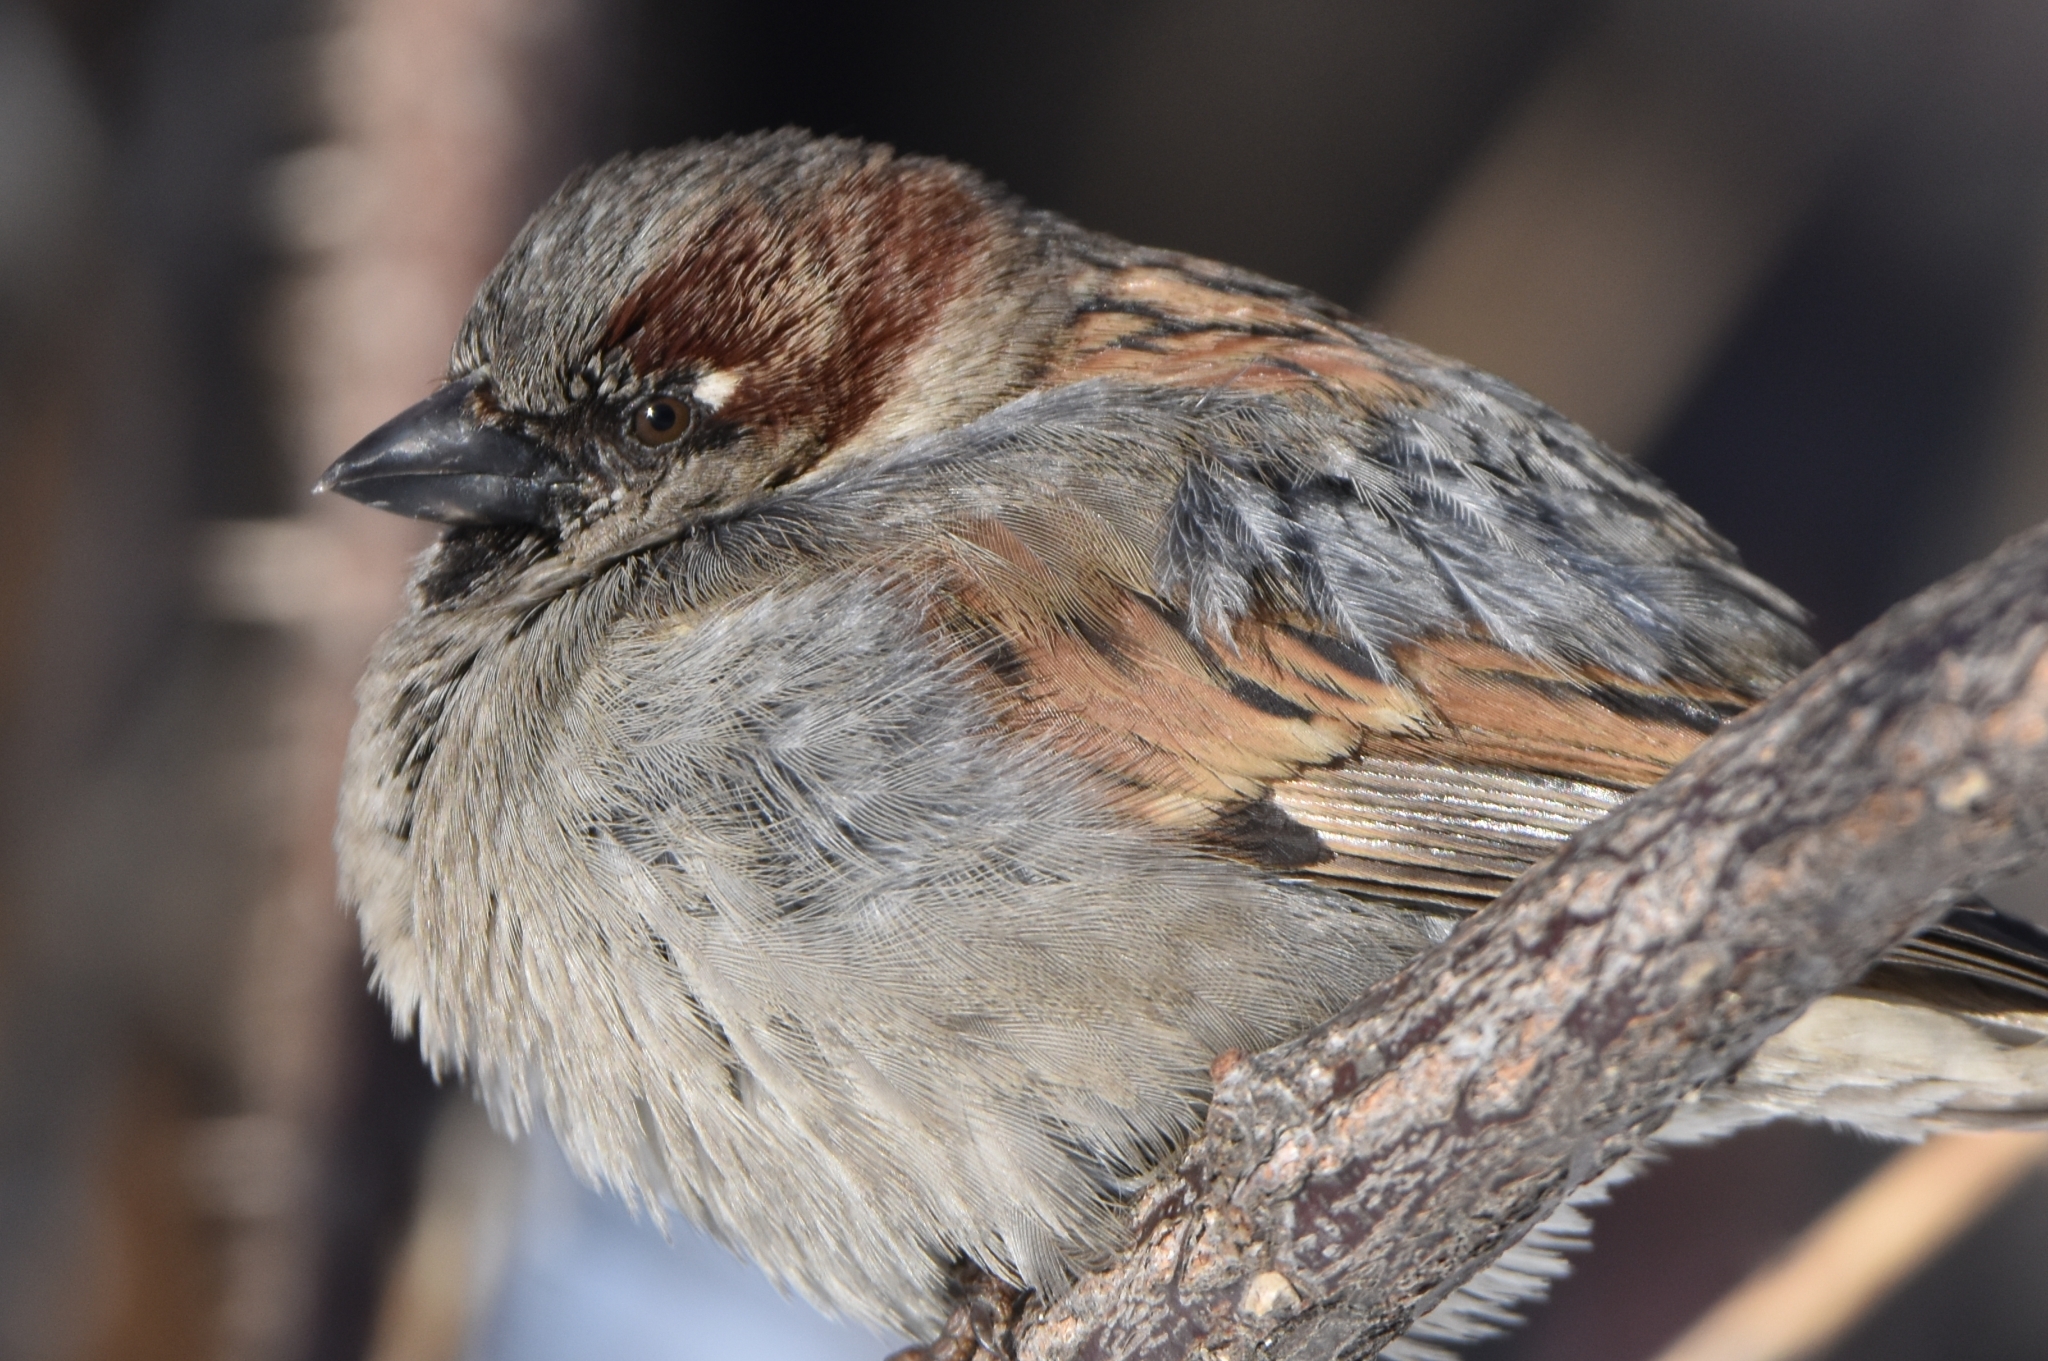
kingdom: Animalia
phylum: Chordata
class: Aves
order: Passeriformes
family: Passeridae
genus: Passer
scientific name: Passer domesticus
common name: House sparrow
